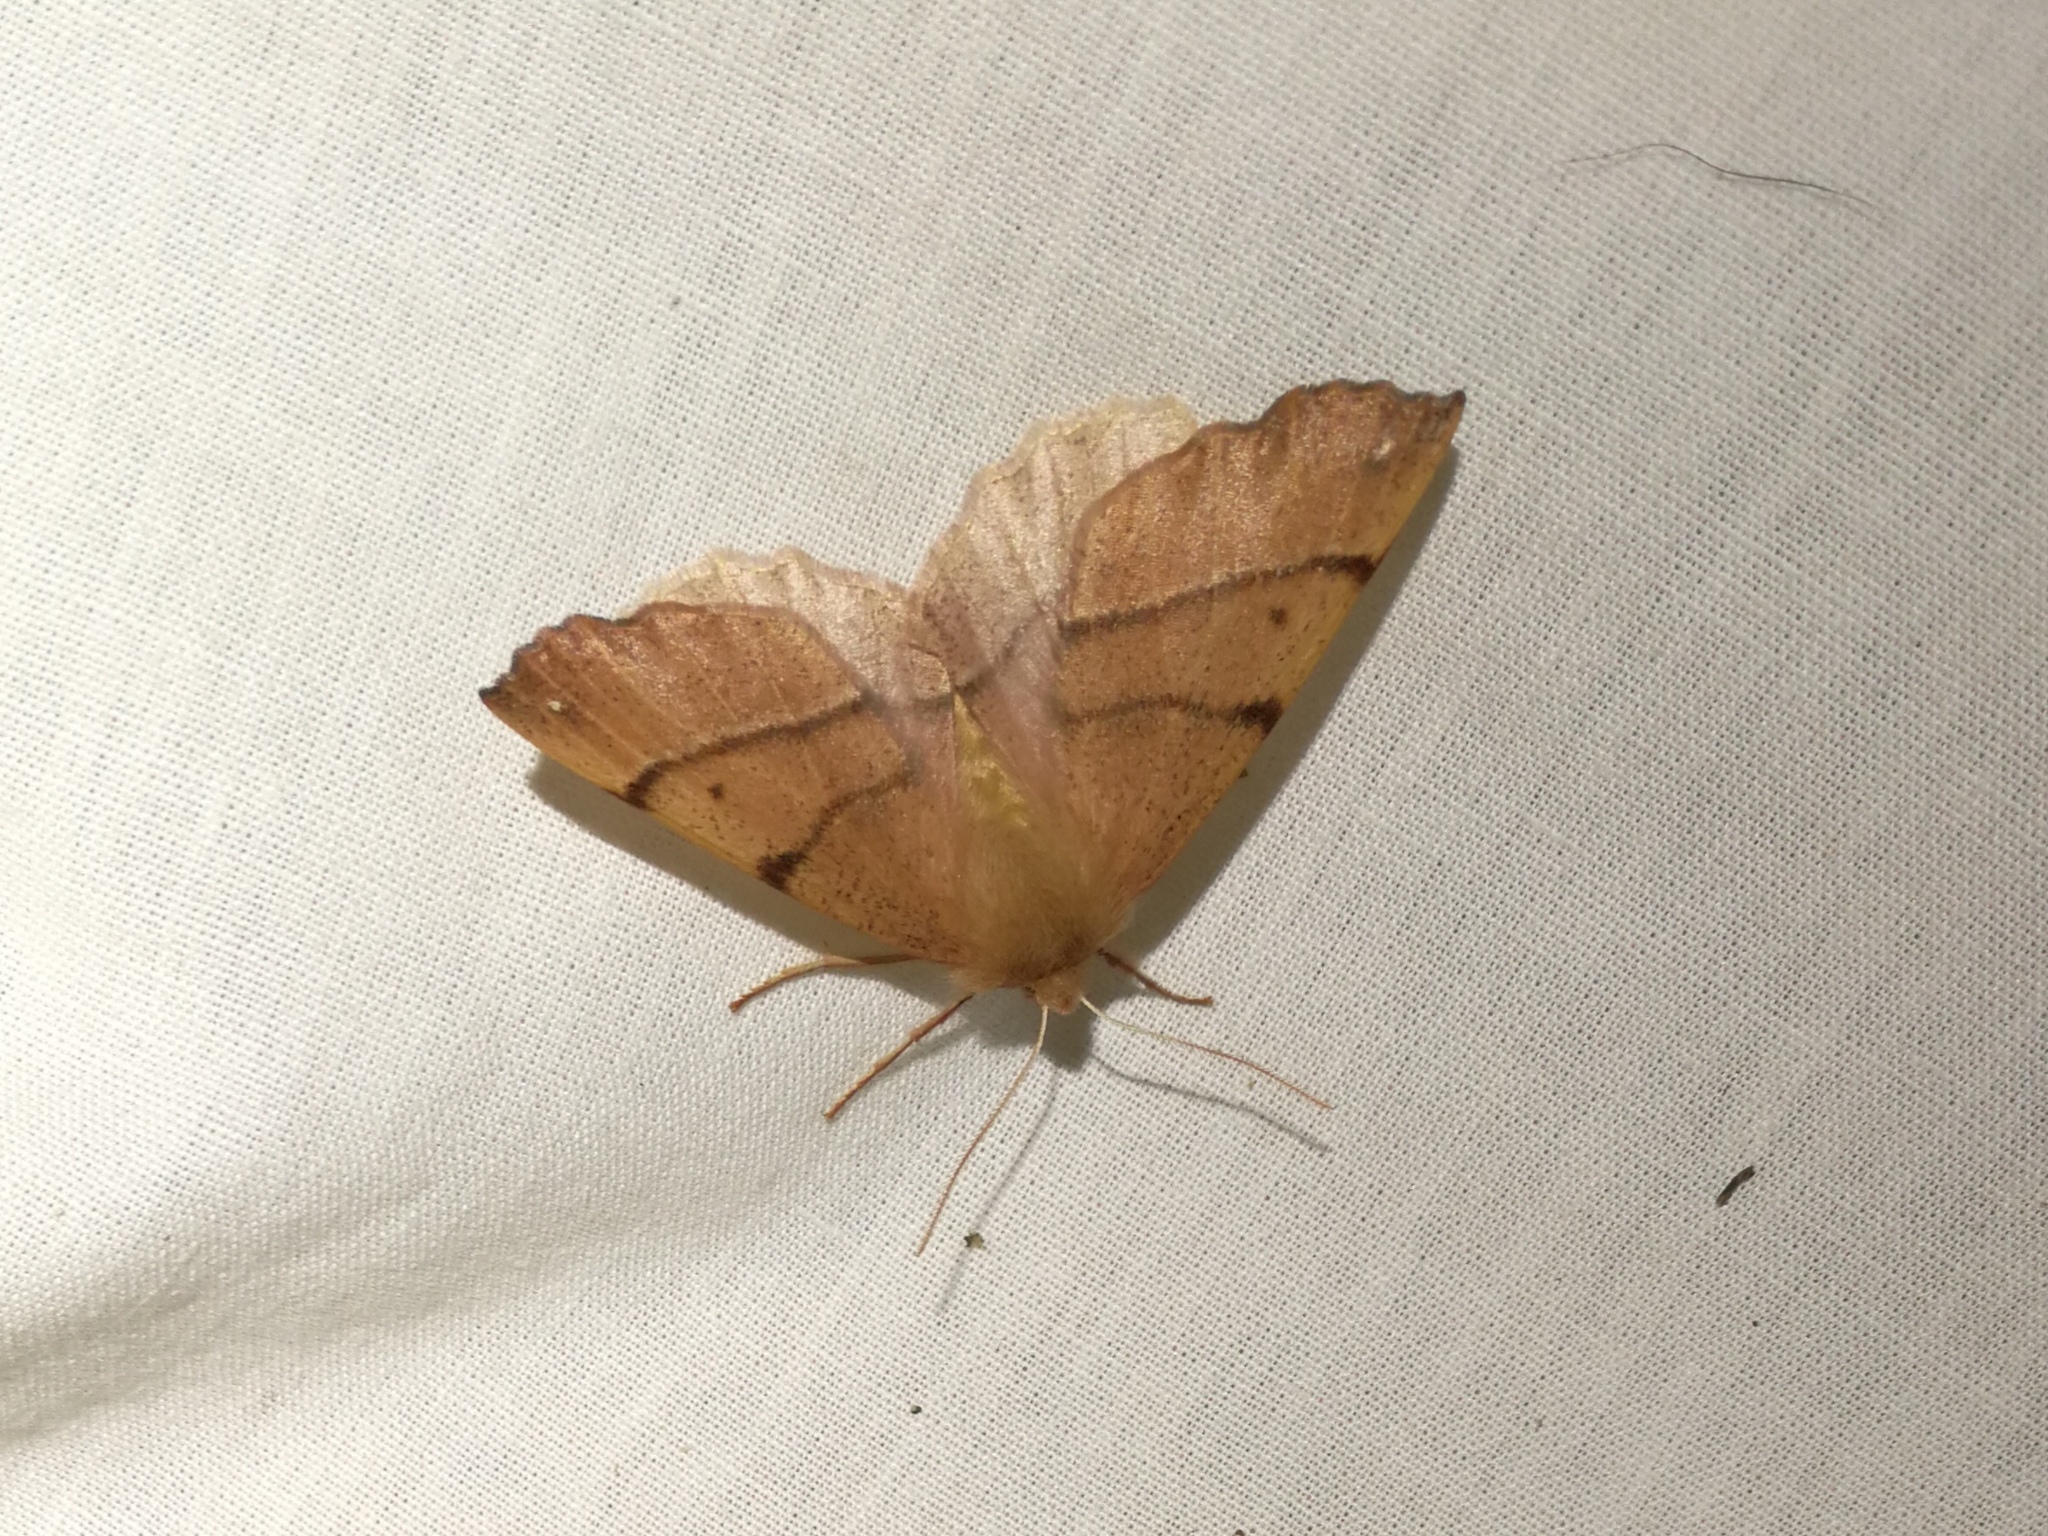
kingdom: Animalia
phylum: Arthropoda
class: Insecta
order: Lepidoptera
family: Geometridae
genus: Colotois
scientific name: Colotois pennaria
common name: Feathered thorn
